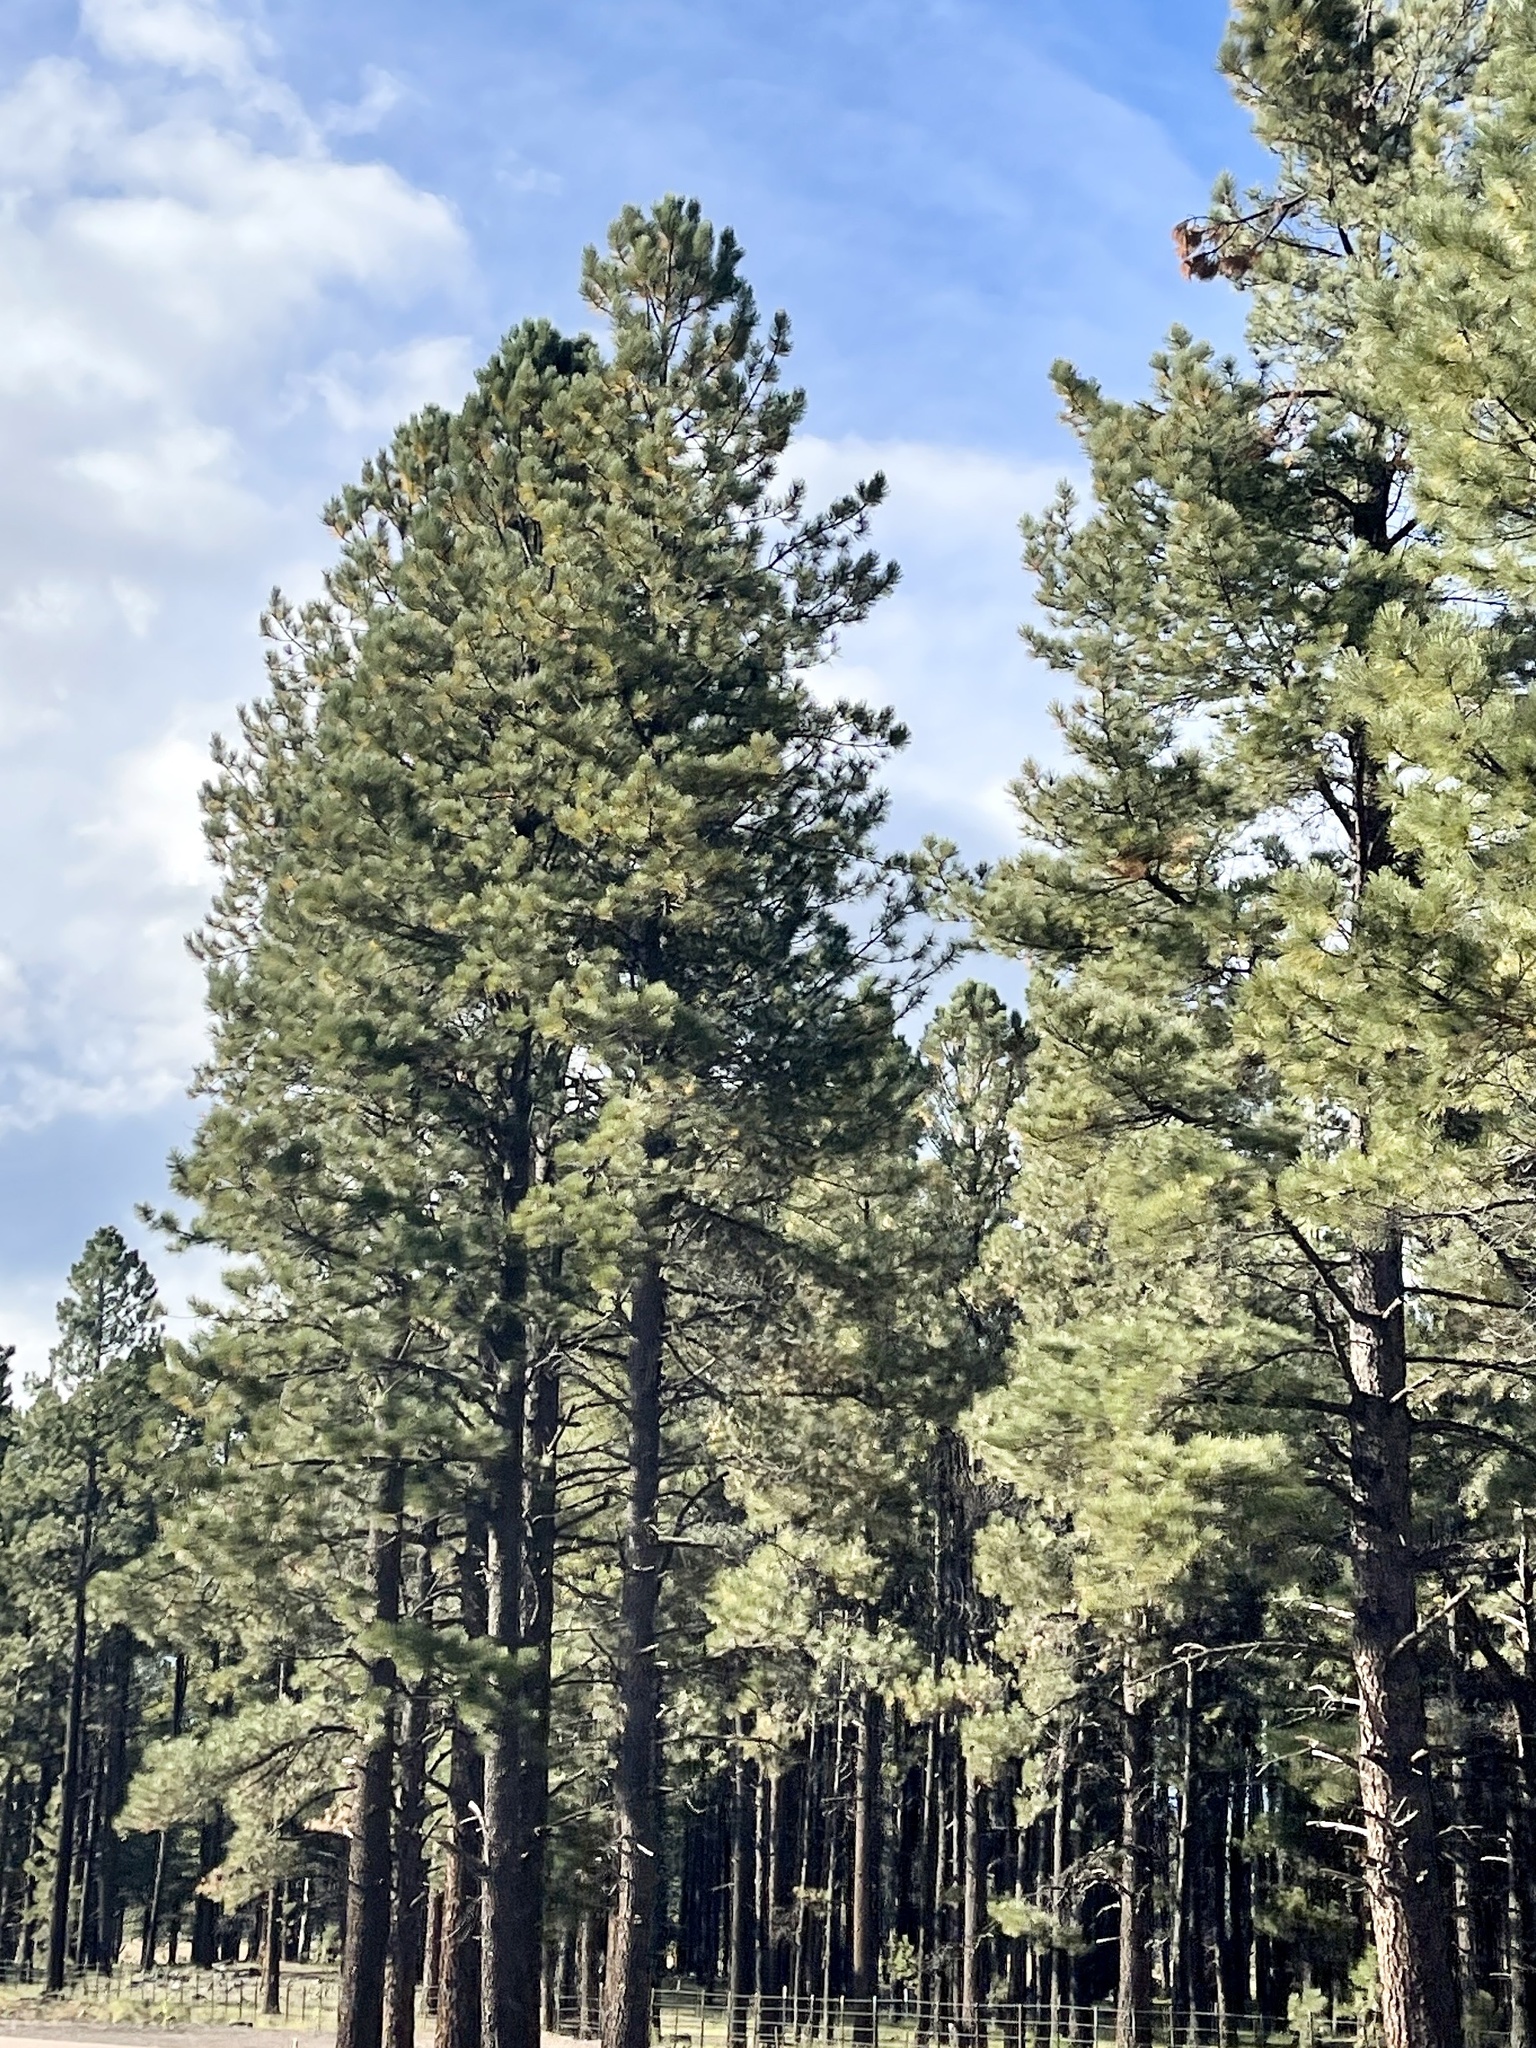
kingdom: Plantae
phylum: Tracheophyta
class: Pinopsida
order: Pinales
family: Pinaceae
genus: Pinus
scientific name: Pinus ponderosa
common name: Western yellow-pine
